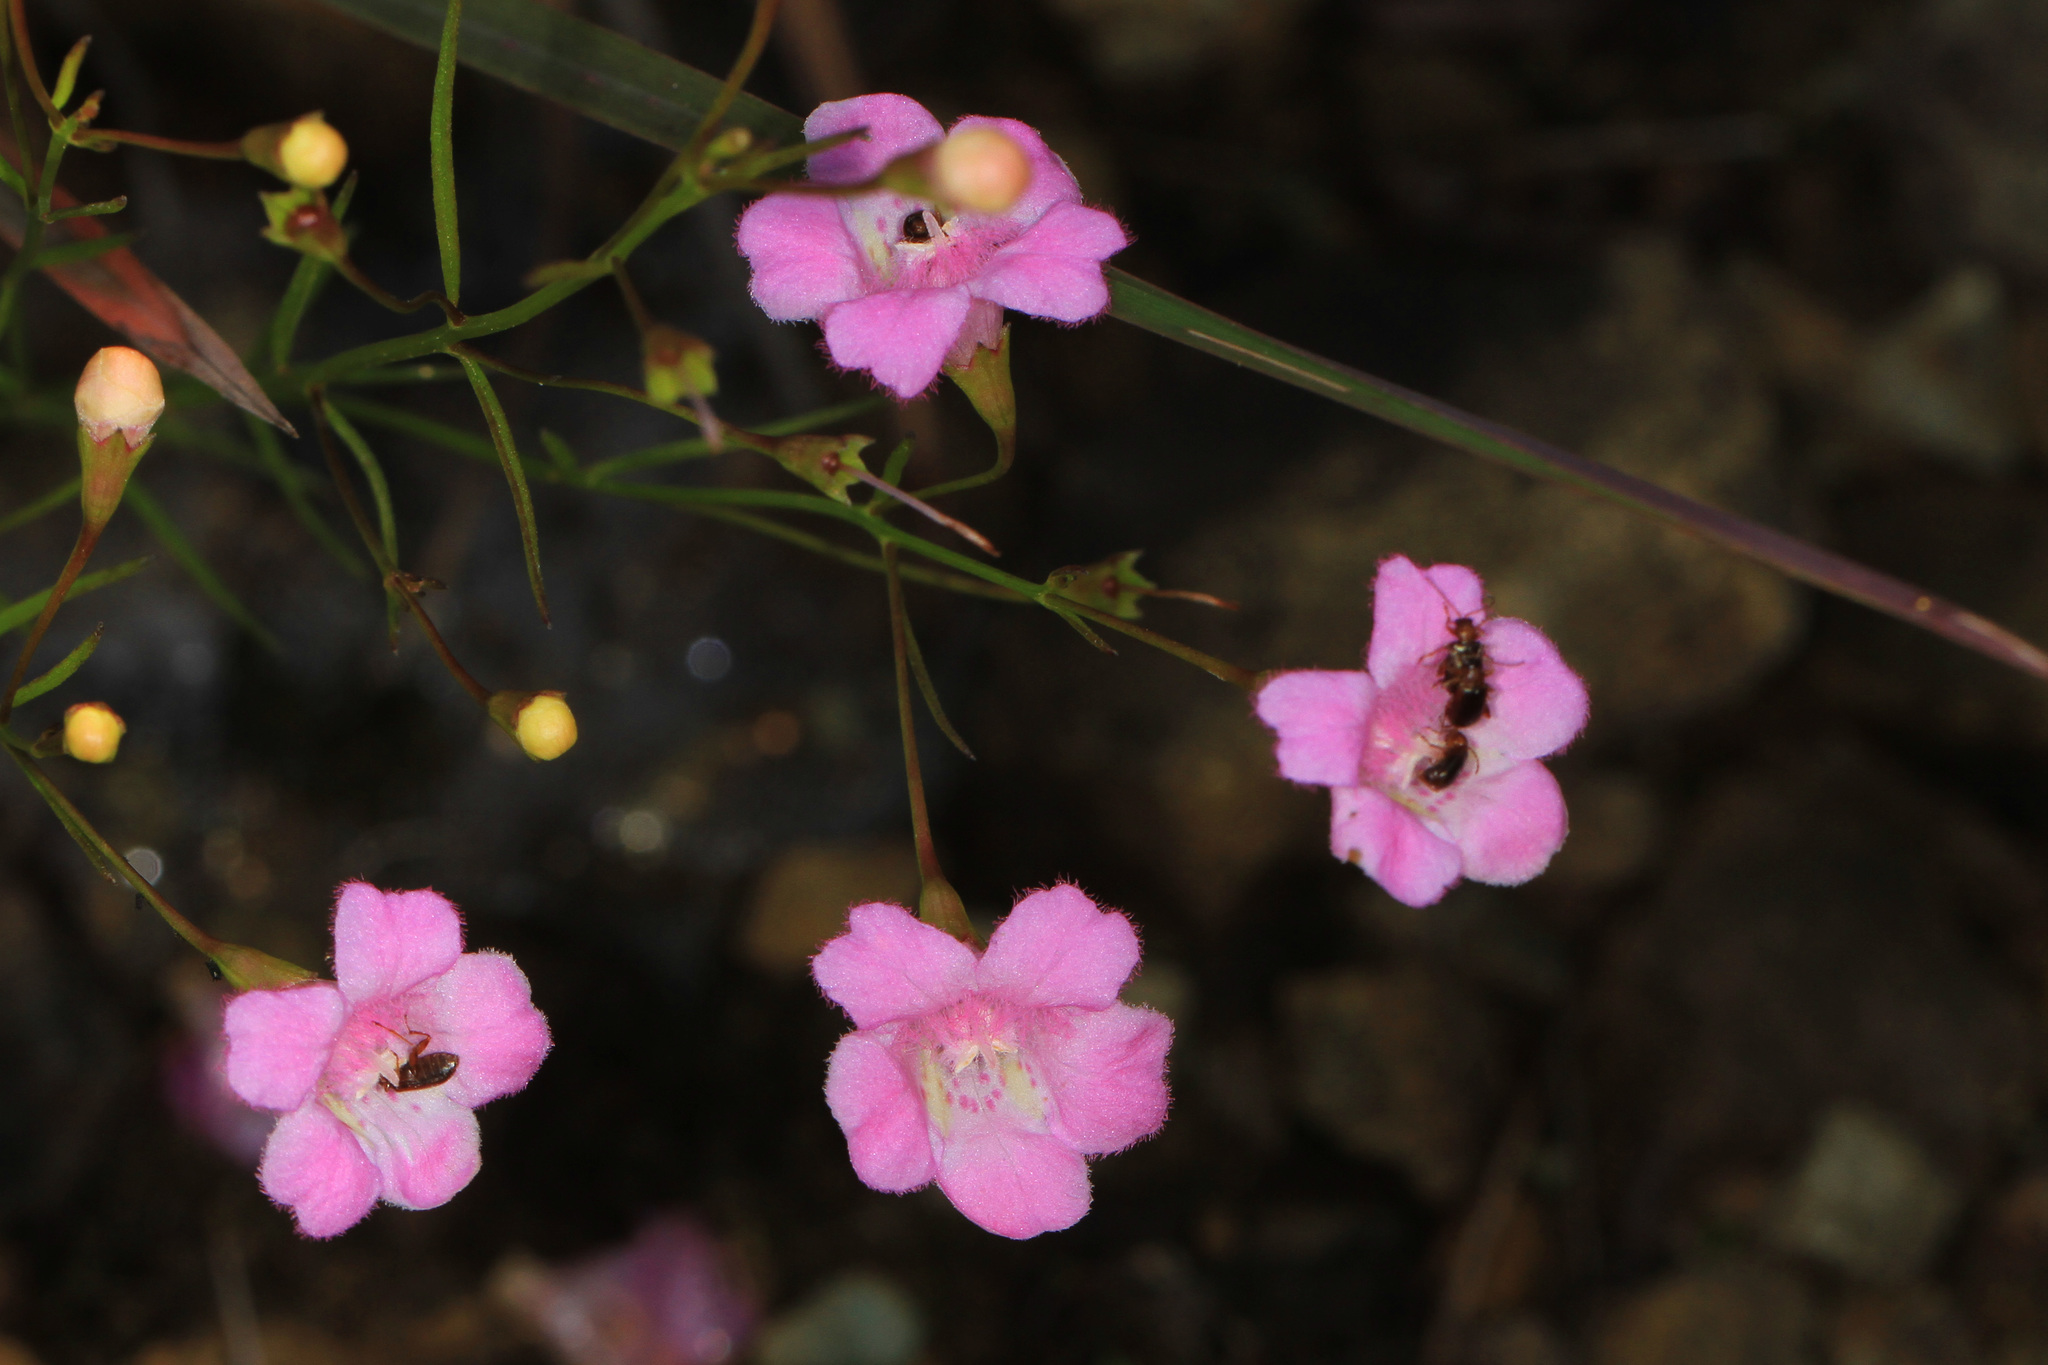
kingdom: Plantae
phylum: Tracheophyta
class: Magnoliopsida
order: Lamiales
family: Orobanchaceae
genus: Agalinis
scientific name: Agalinis decemloba
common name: Ten-lobed false foxglove
